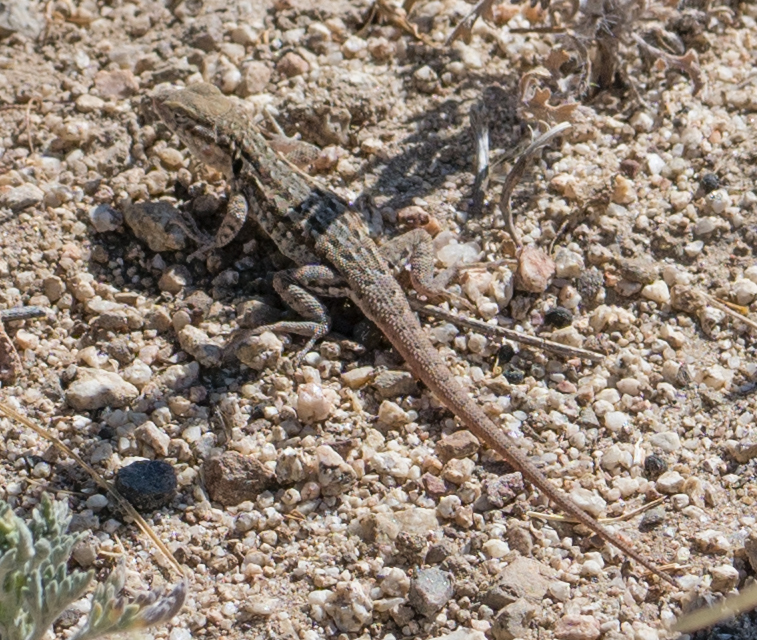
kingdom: Animalia
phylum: Chordata
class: Squamata
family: Phrynosomatidae
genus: Uta
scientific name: Uta stansburiana
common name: Side-blotched lizard
